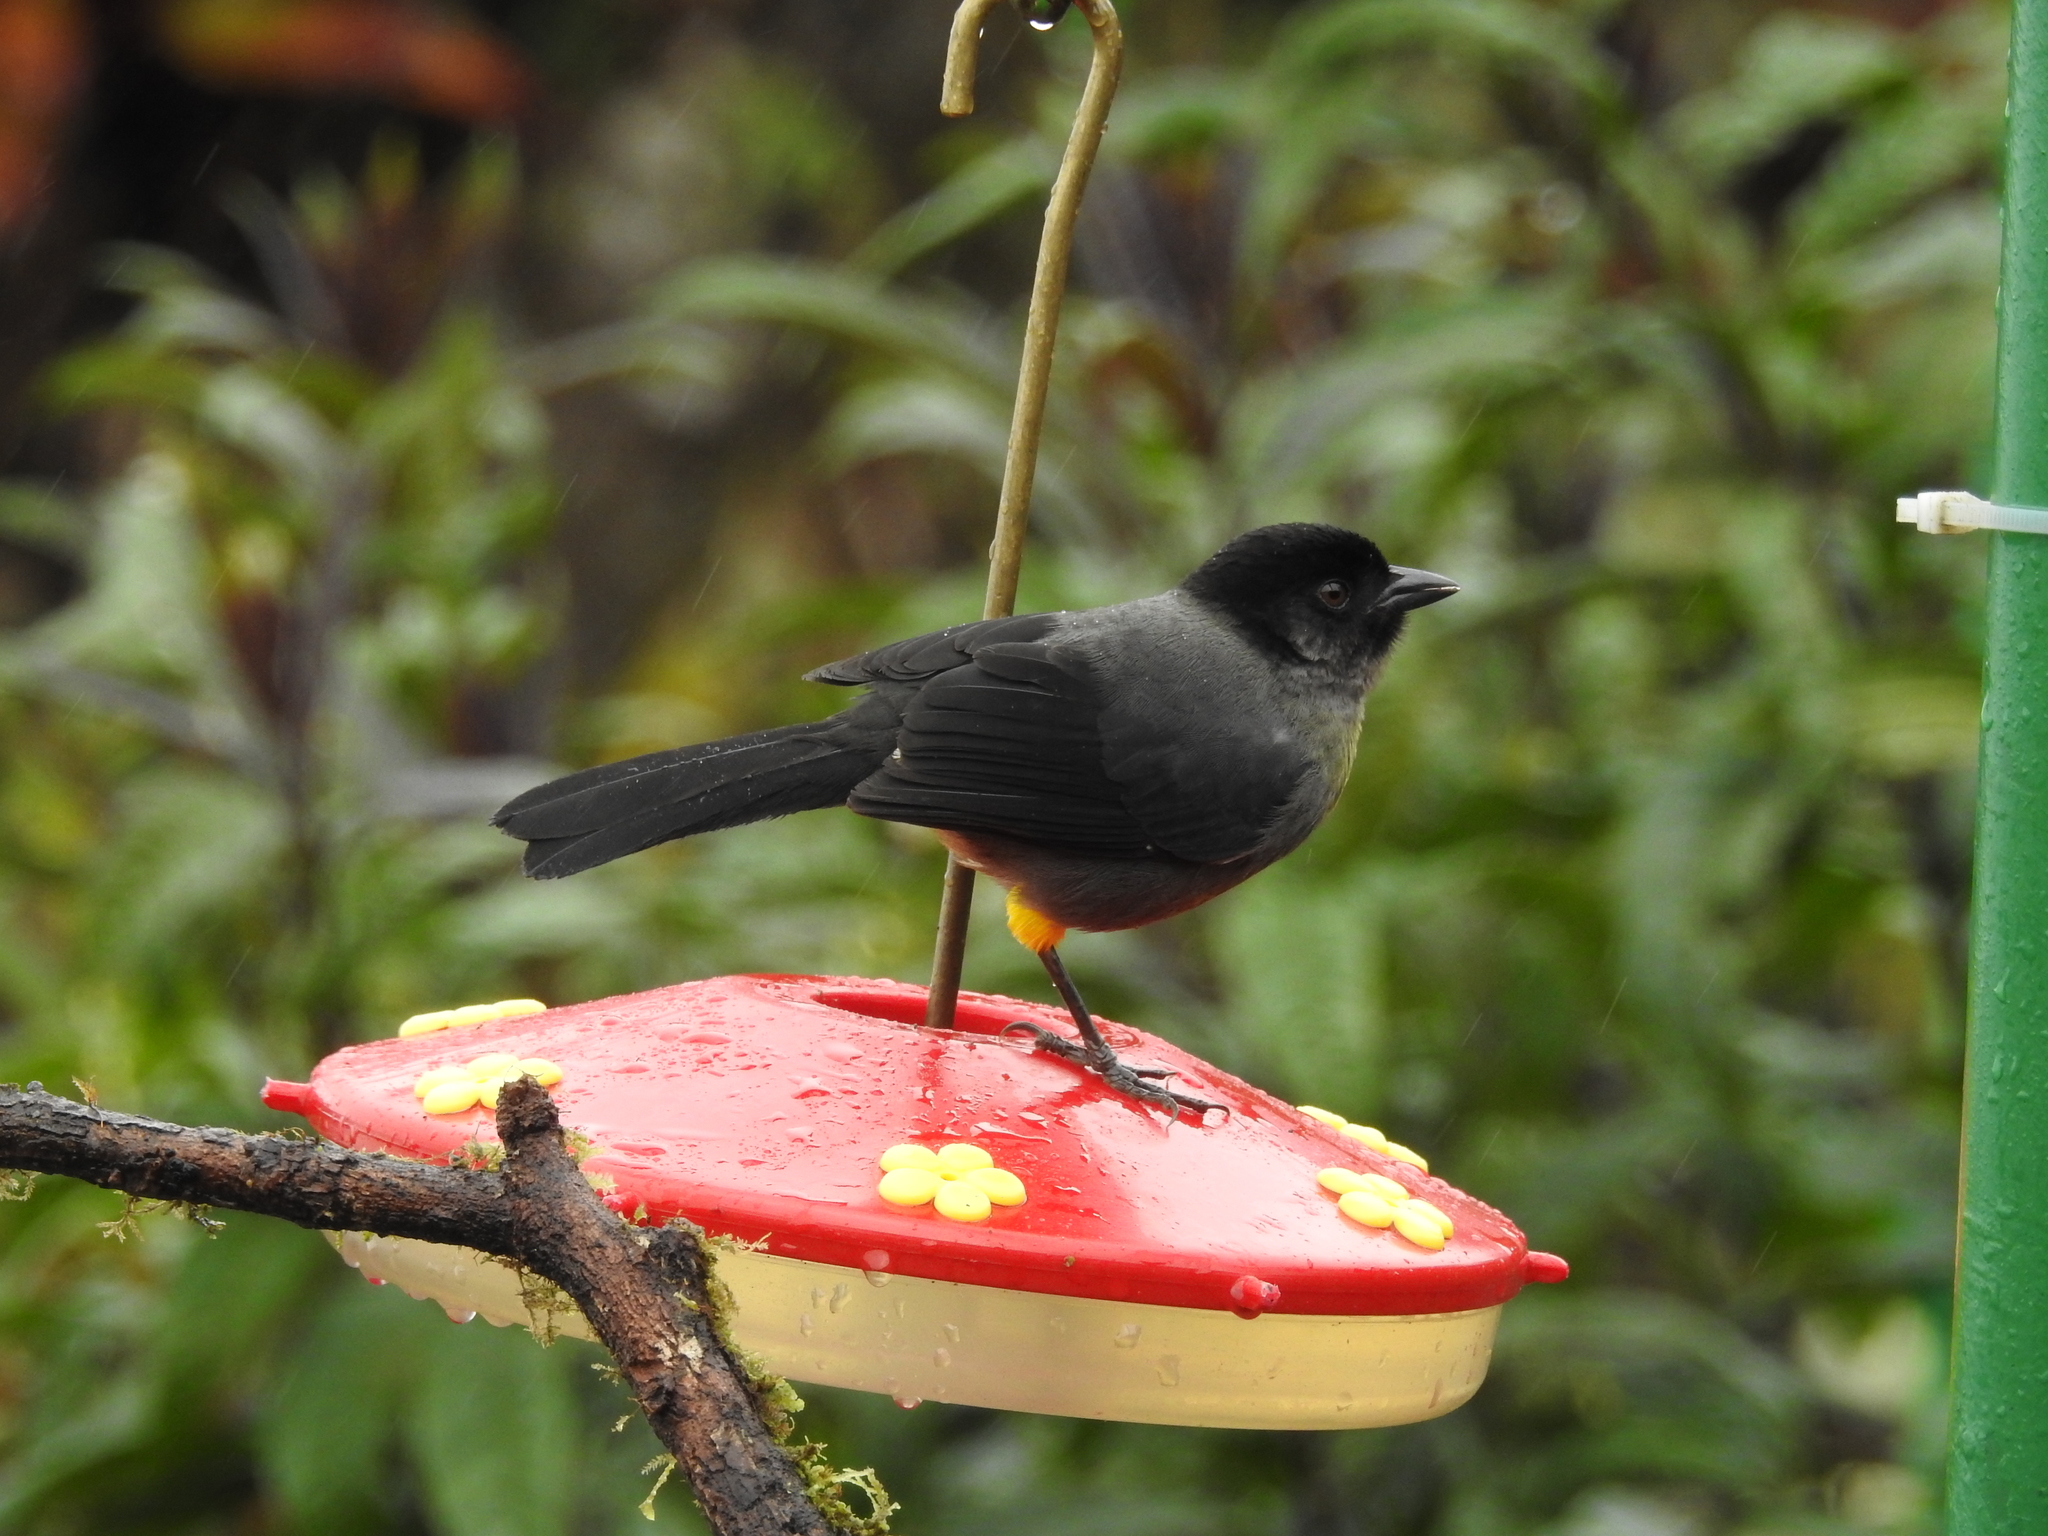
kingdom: Animalia
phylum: Chordata
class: Aves
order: Passeriformes
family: Passerellidae
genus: Atlapetes
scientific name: Atlapetes tibialis
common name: Yellow-thighed brushfinch
